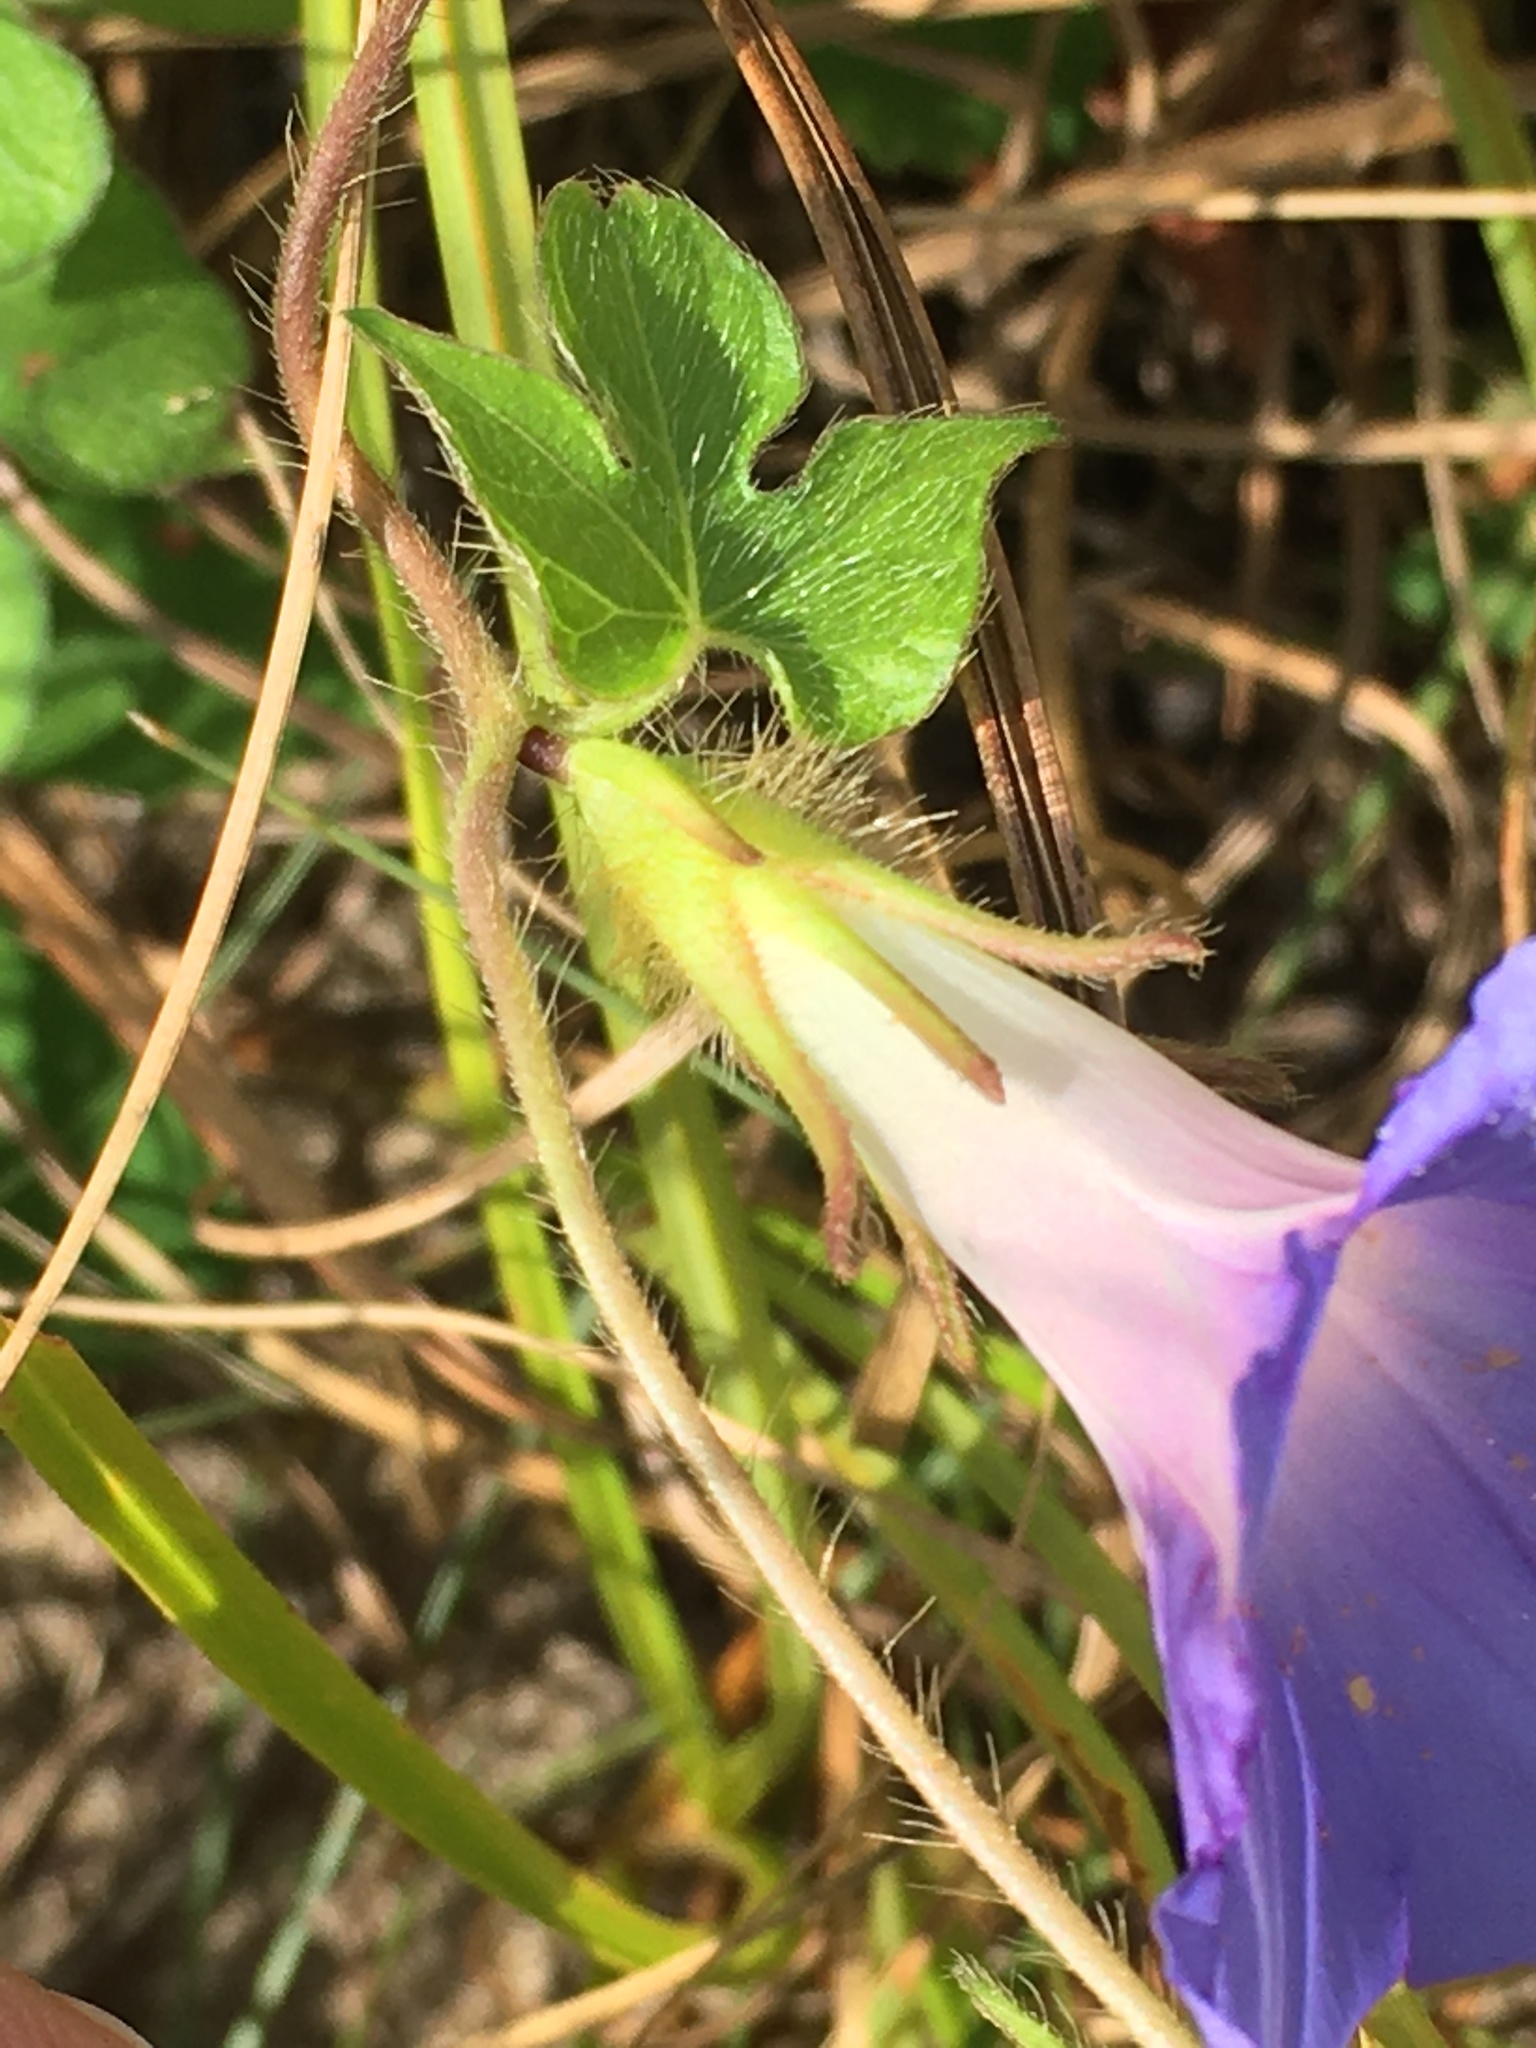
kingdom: Plantae
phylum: Tracheophyta
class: Magnoliopsida
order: Solanales
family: Convolvulaceae
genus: Ipomoea
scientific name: Ipomoea hederacea
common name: Ivy-leaved morning-glory
